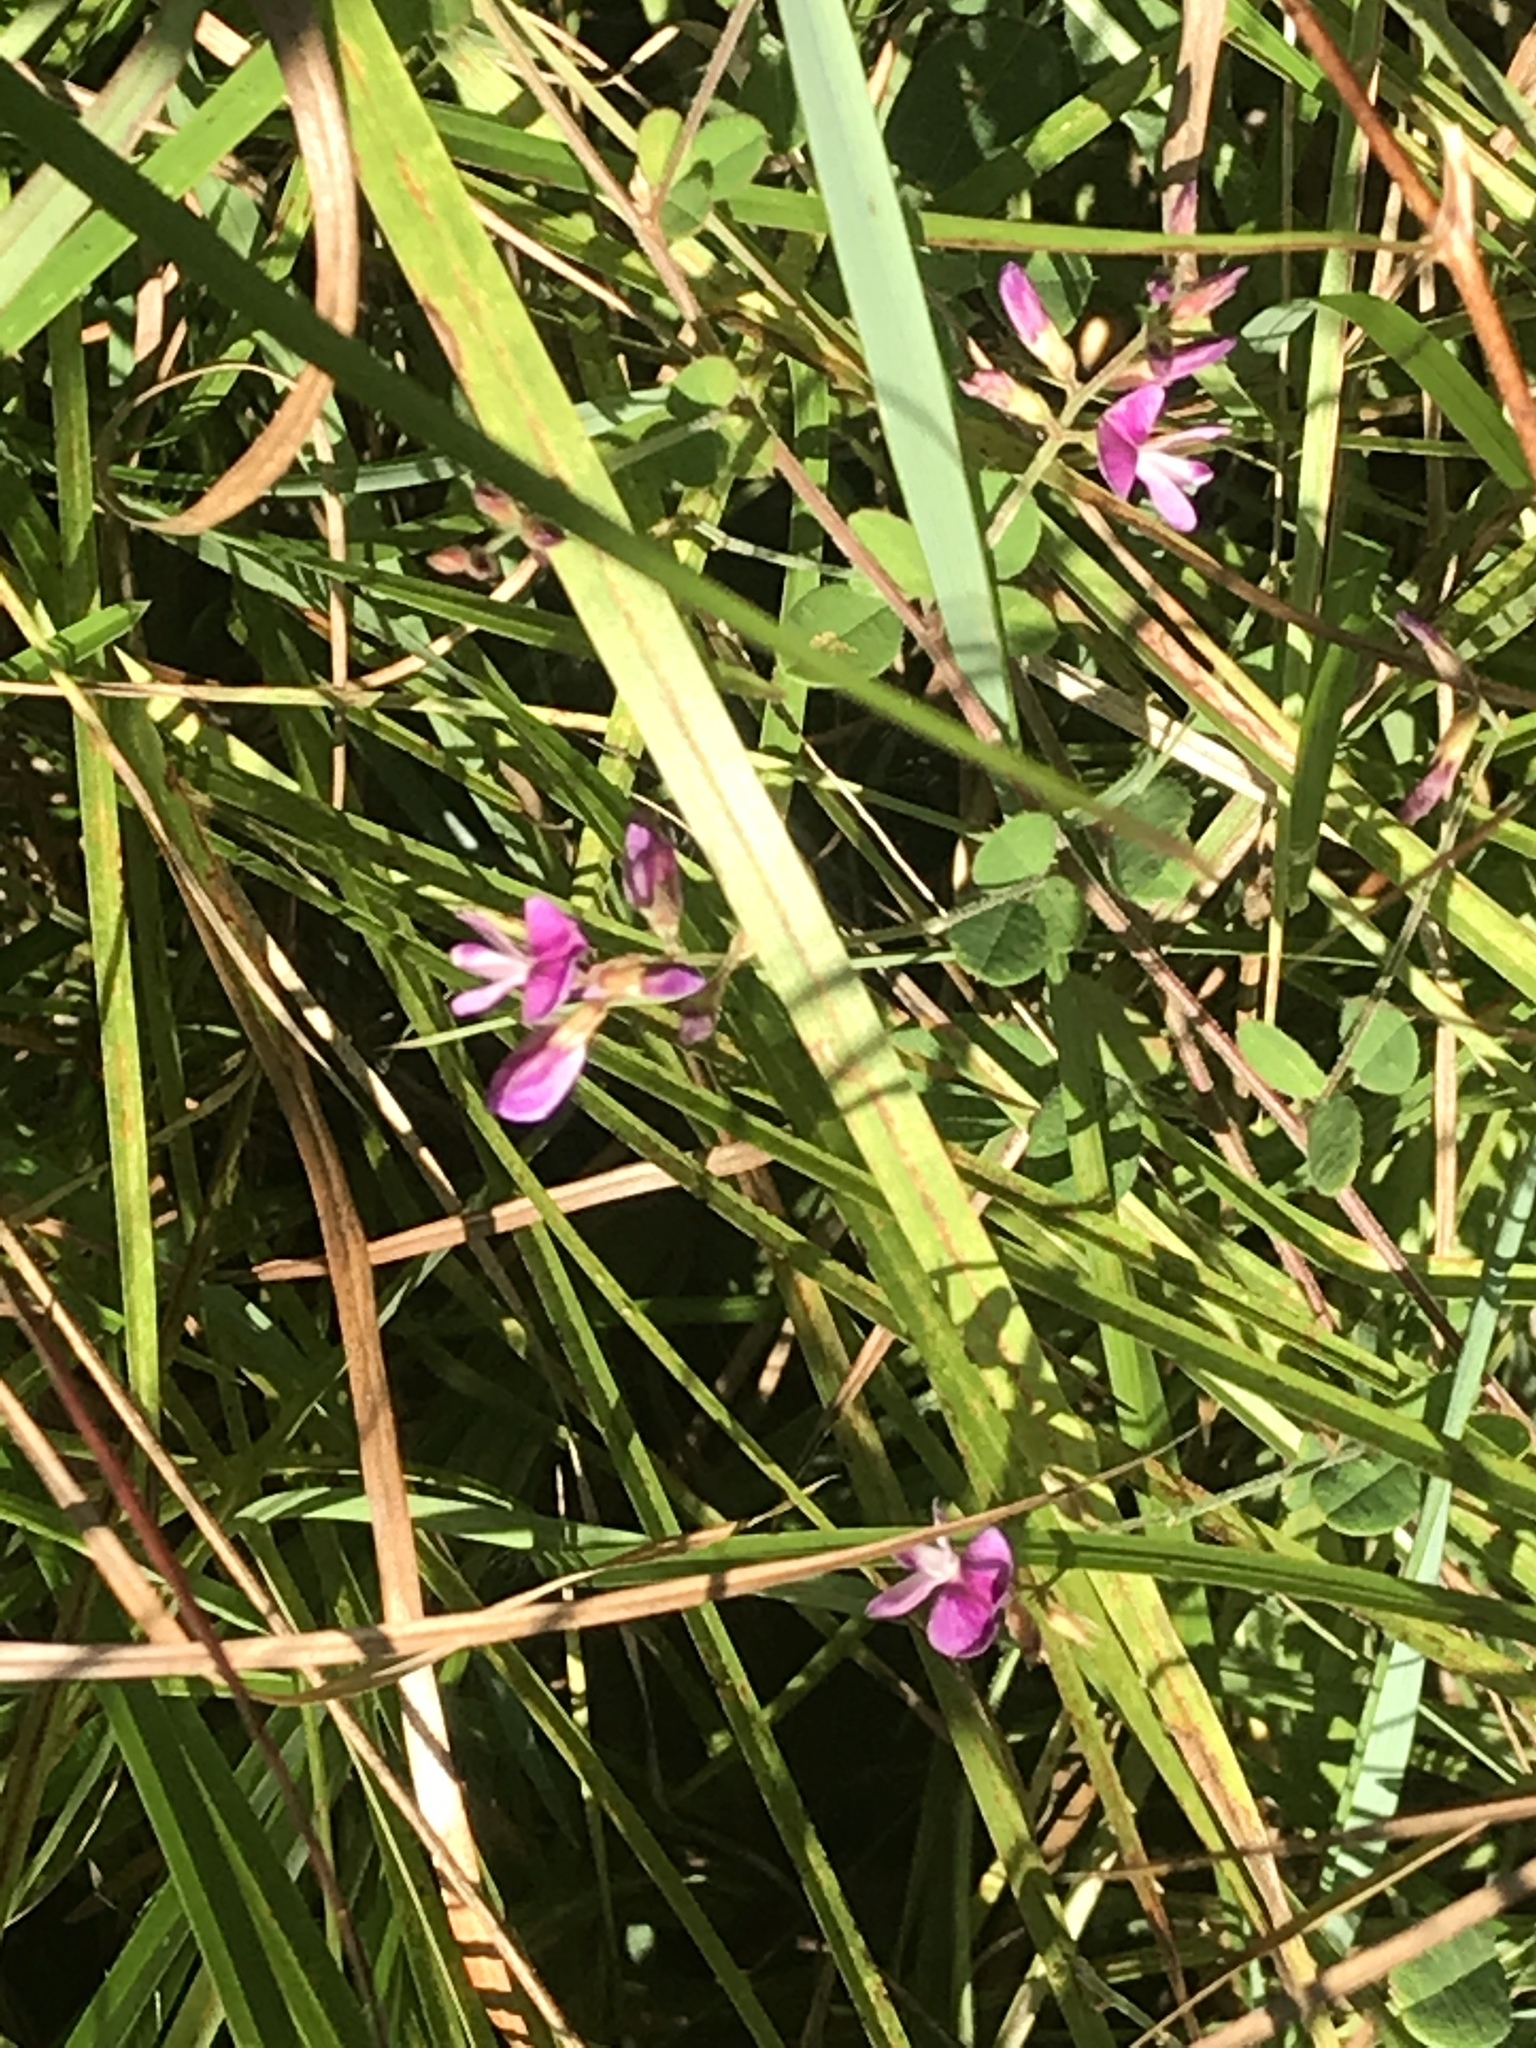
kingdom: Plantae
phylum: Tracheophyta
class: Magnoliopsida
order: Fabales
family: Fabaceae
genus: Lespedeza
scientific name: Lespedeza procumbens
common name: Downy trailing bush-clover
